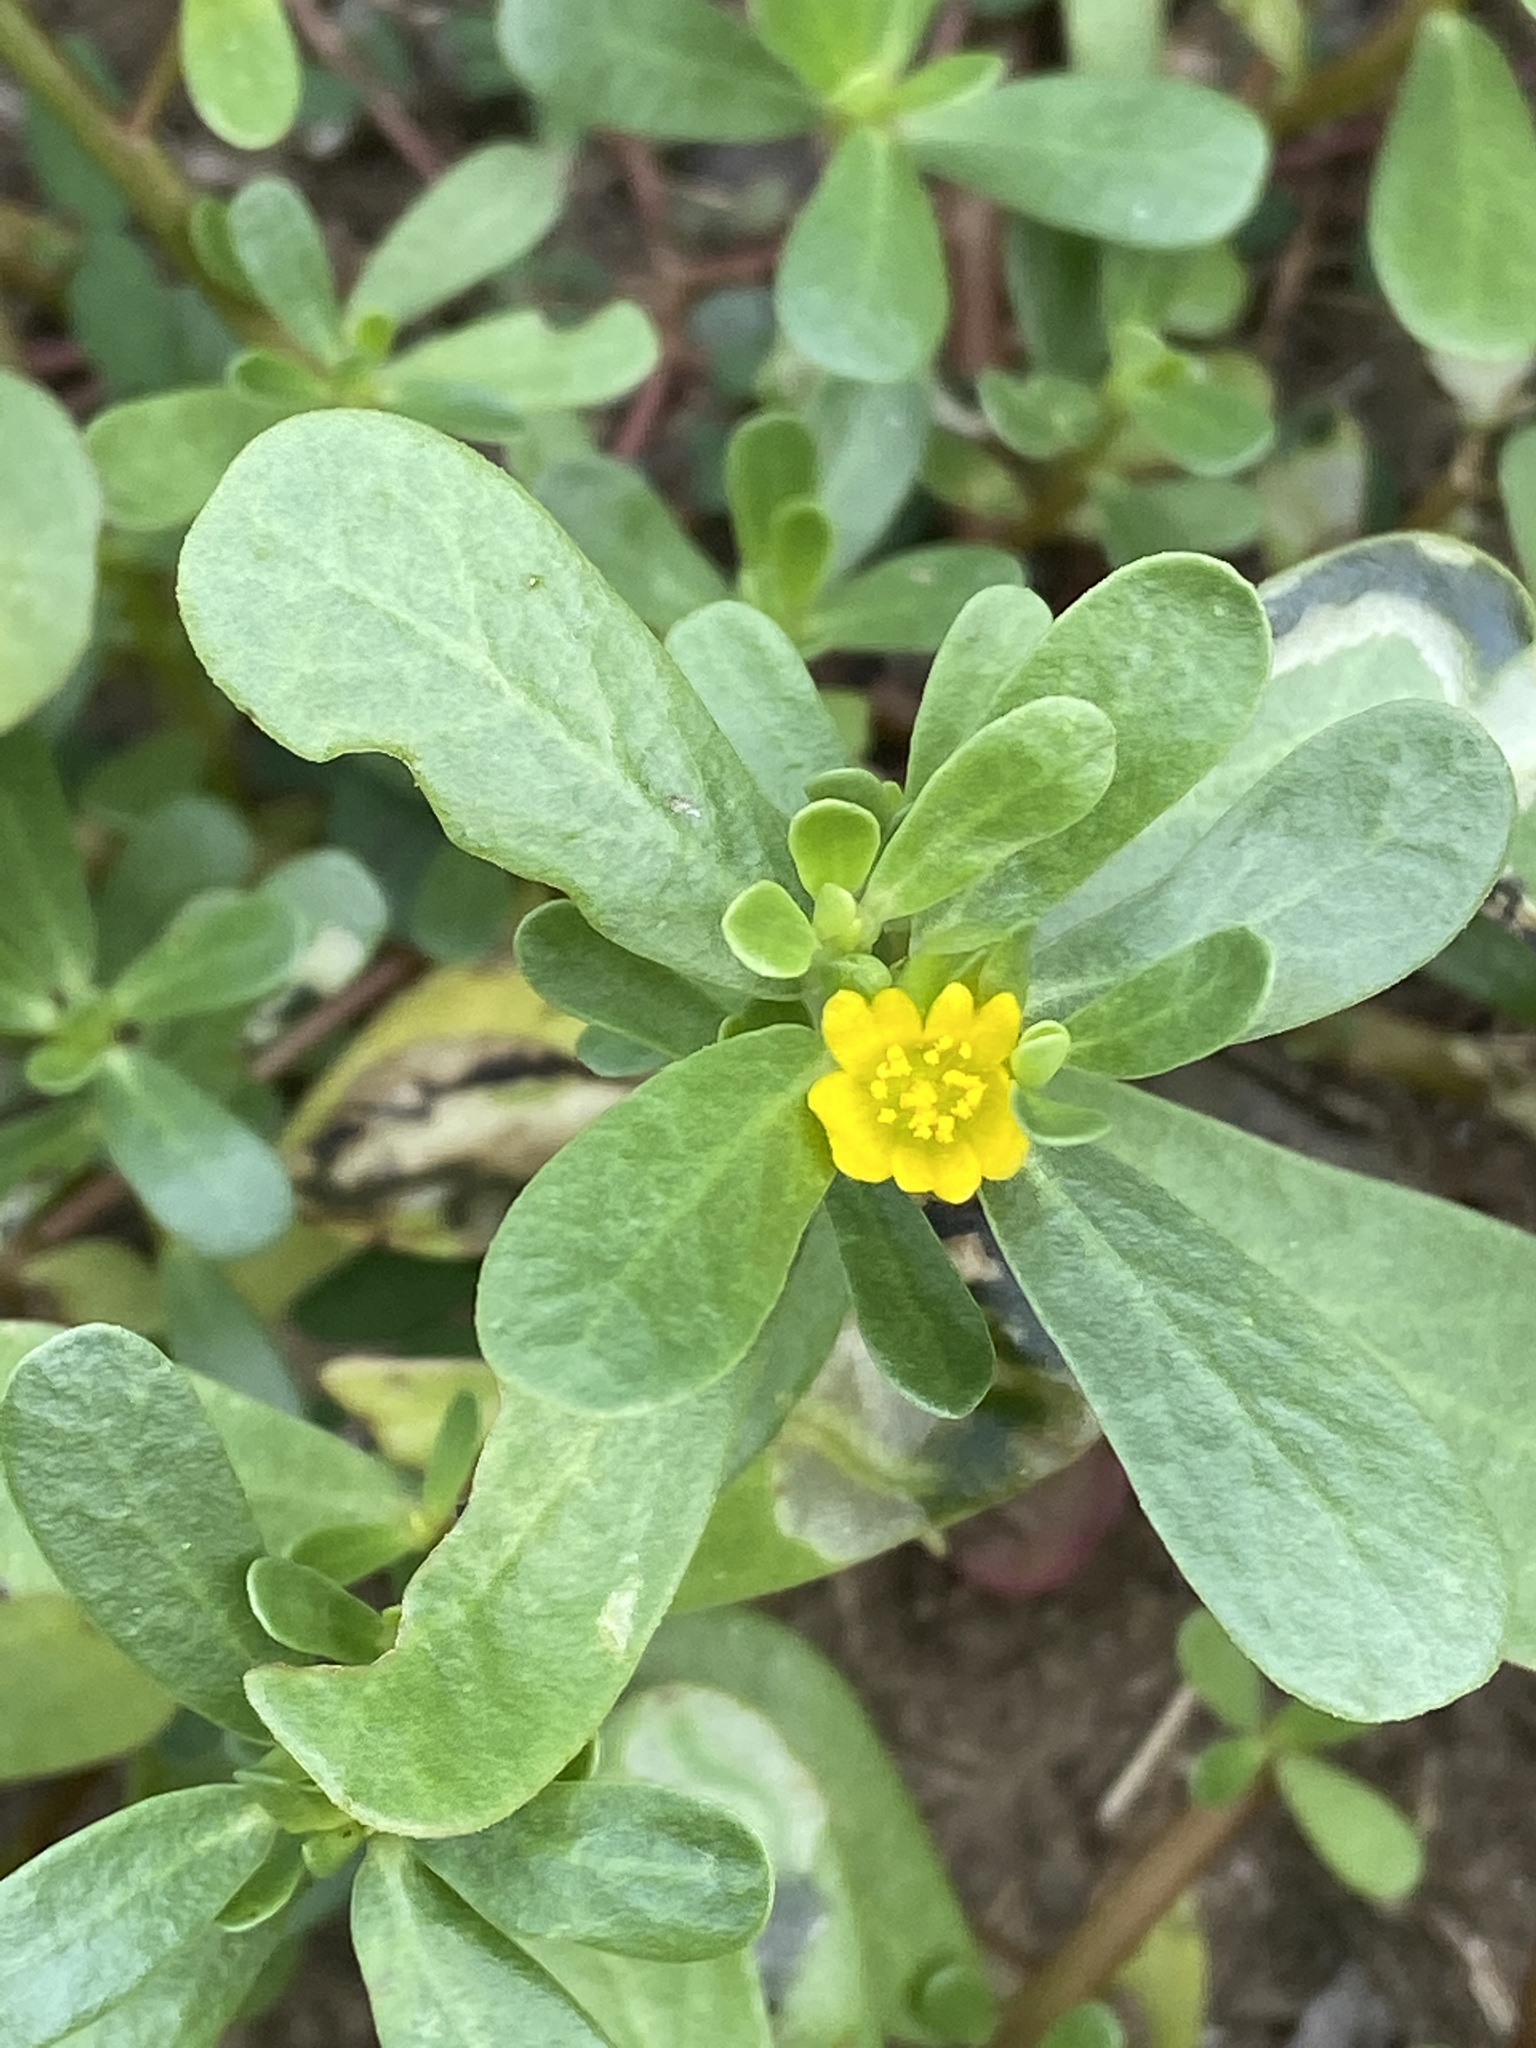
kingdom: Plantae
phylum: Tracheophyta
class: Magnoliopsida
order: Caryophyllales
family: Portulacaceae
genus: Portulaca
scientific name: Portulaca oleracea
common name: Common purslane
